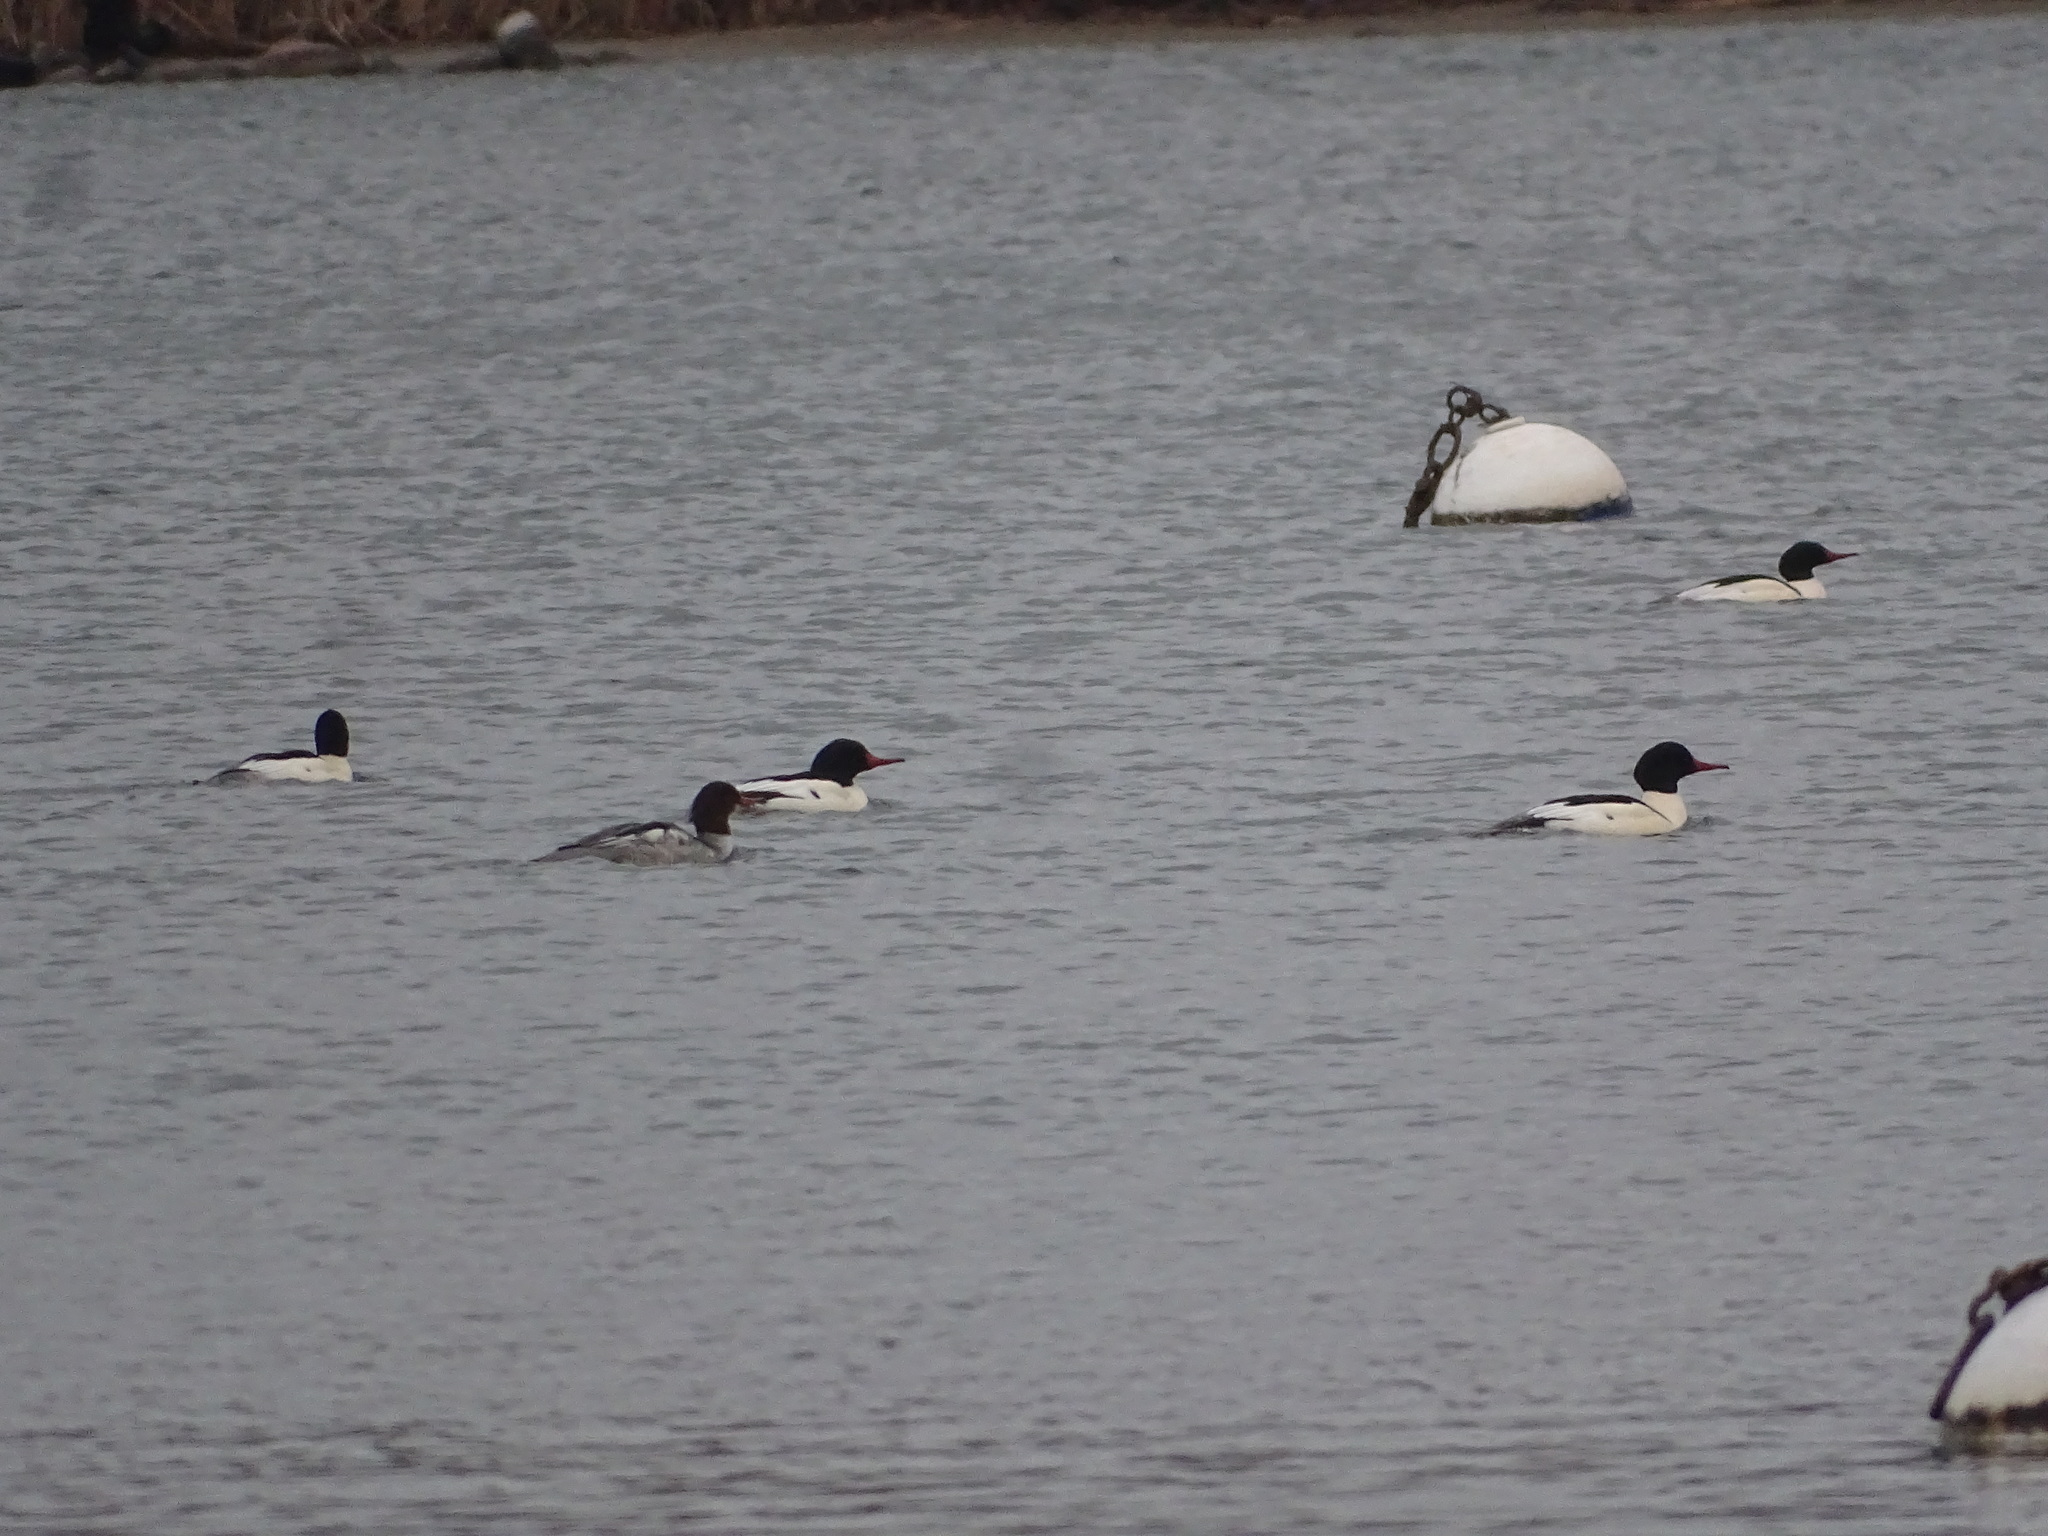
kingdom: Animalia
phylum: Chordata
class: Aves
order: Anseriformes
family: Anatidae
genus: Mergus
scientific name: Mergus merganser
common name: Common merganser
